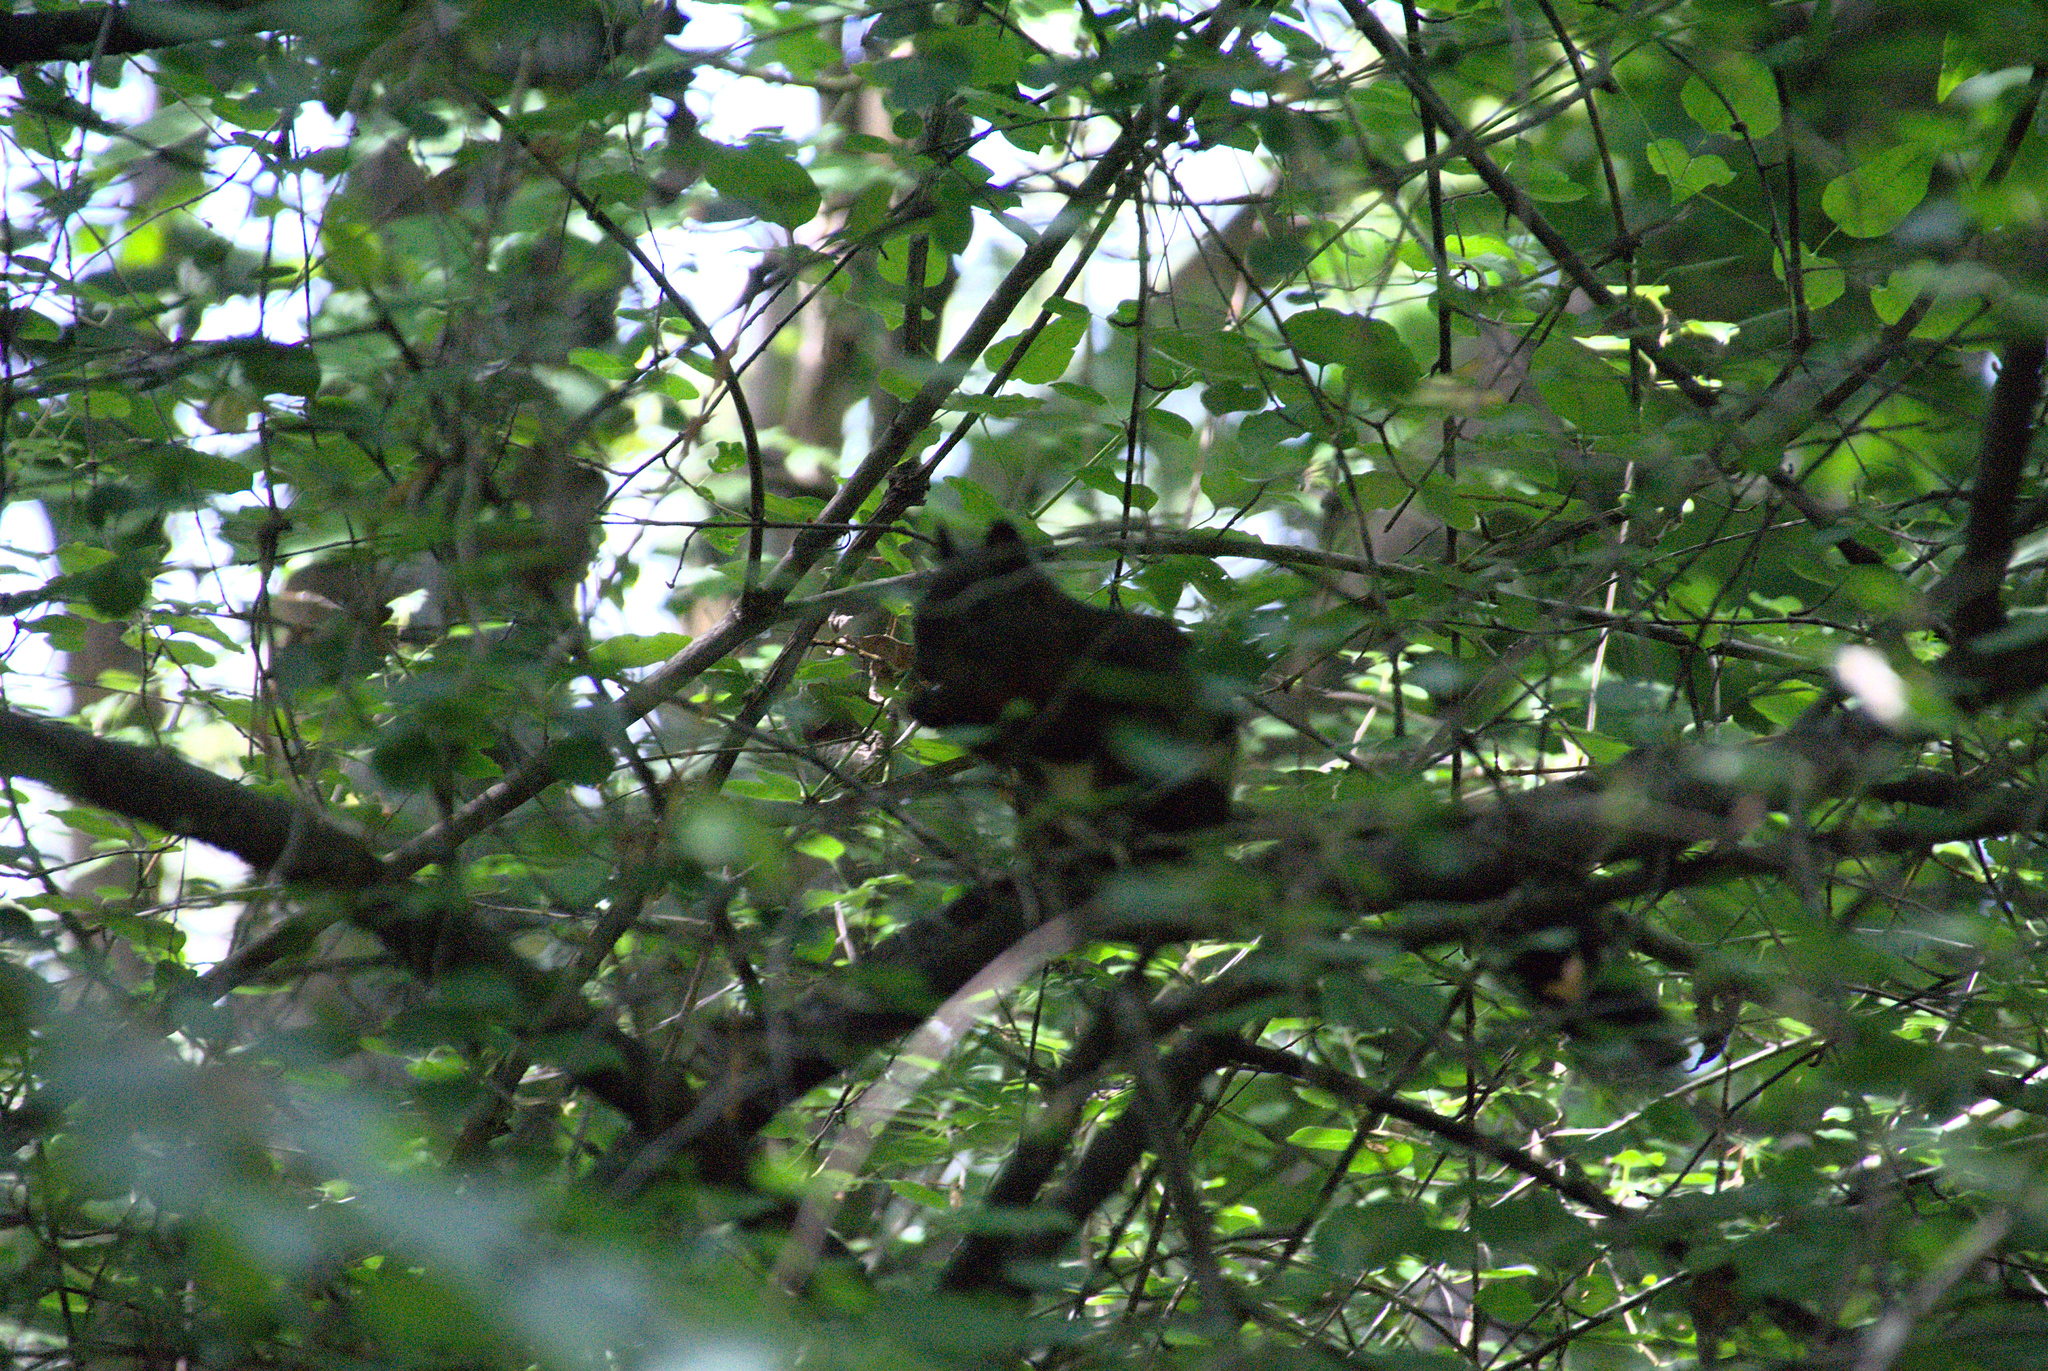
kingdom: Animalia
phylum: Chordata
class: Mammalia
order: Rodentia
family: Sciuridae
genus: Sciurus
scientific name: Sciurus vulgaris
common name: Eurasian red squirrel
